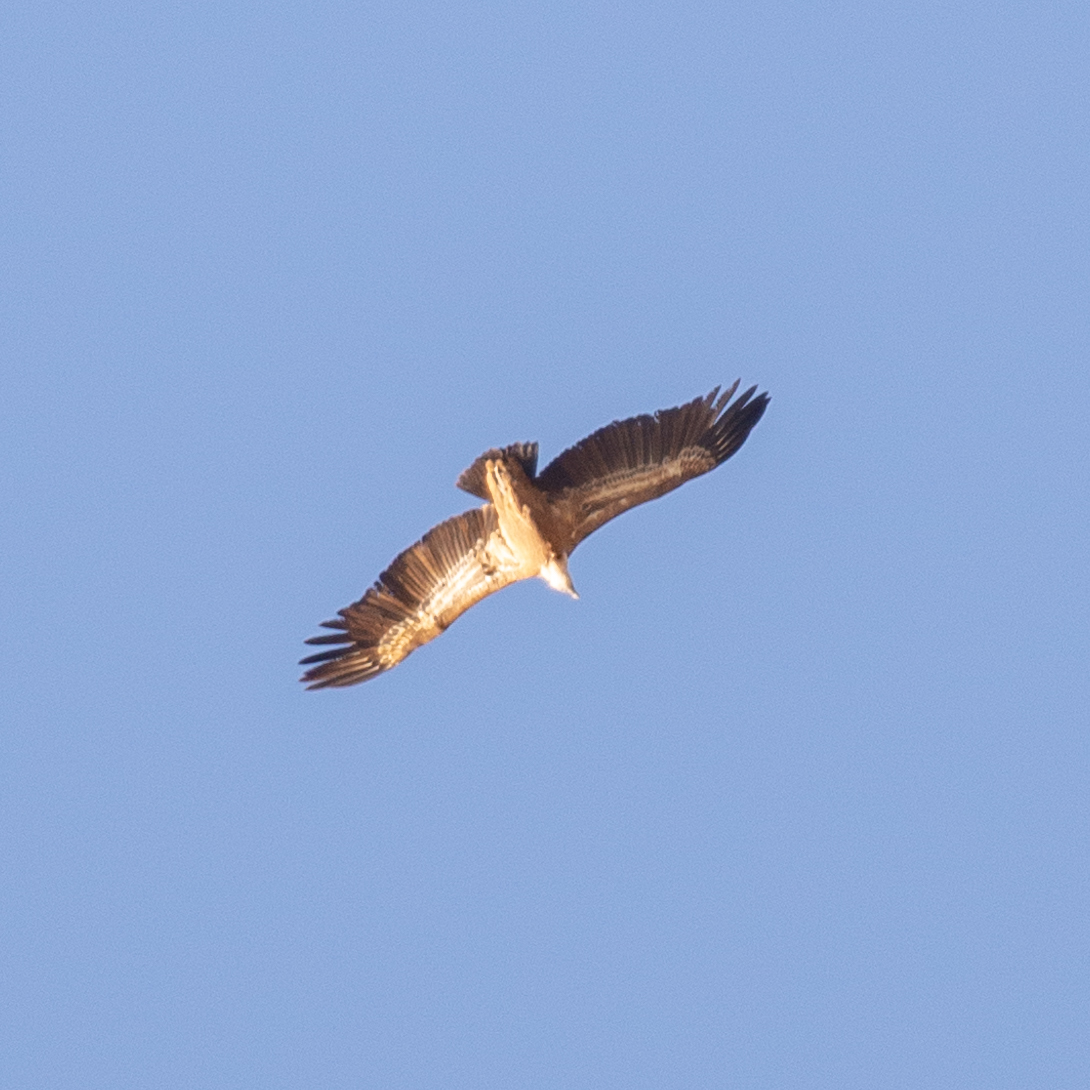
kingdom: Animalia
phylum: Chordata
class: Aves
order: Accipitriformes
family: Accipitridae
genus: Gyps
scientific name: Gyps fulvus
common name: Griffon vulture
